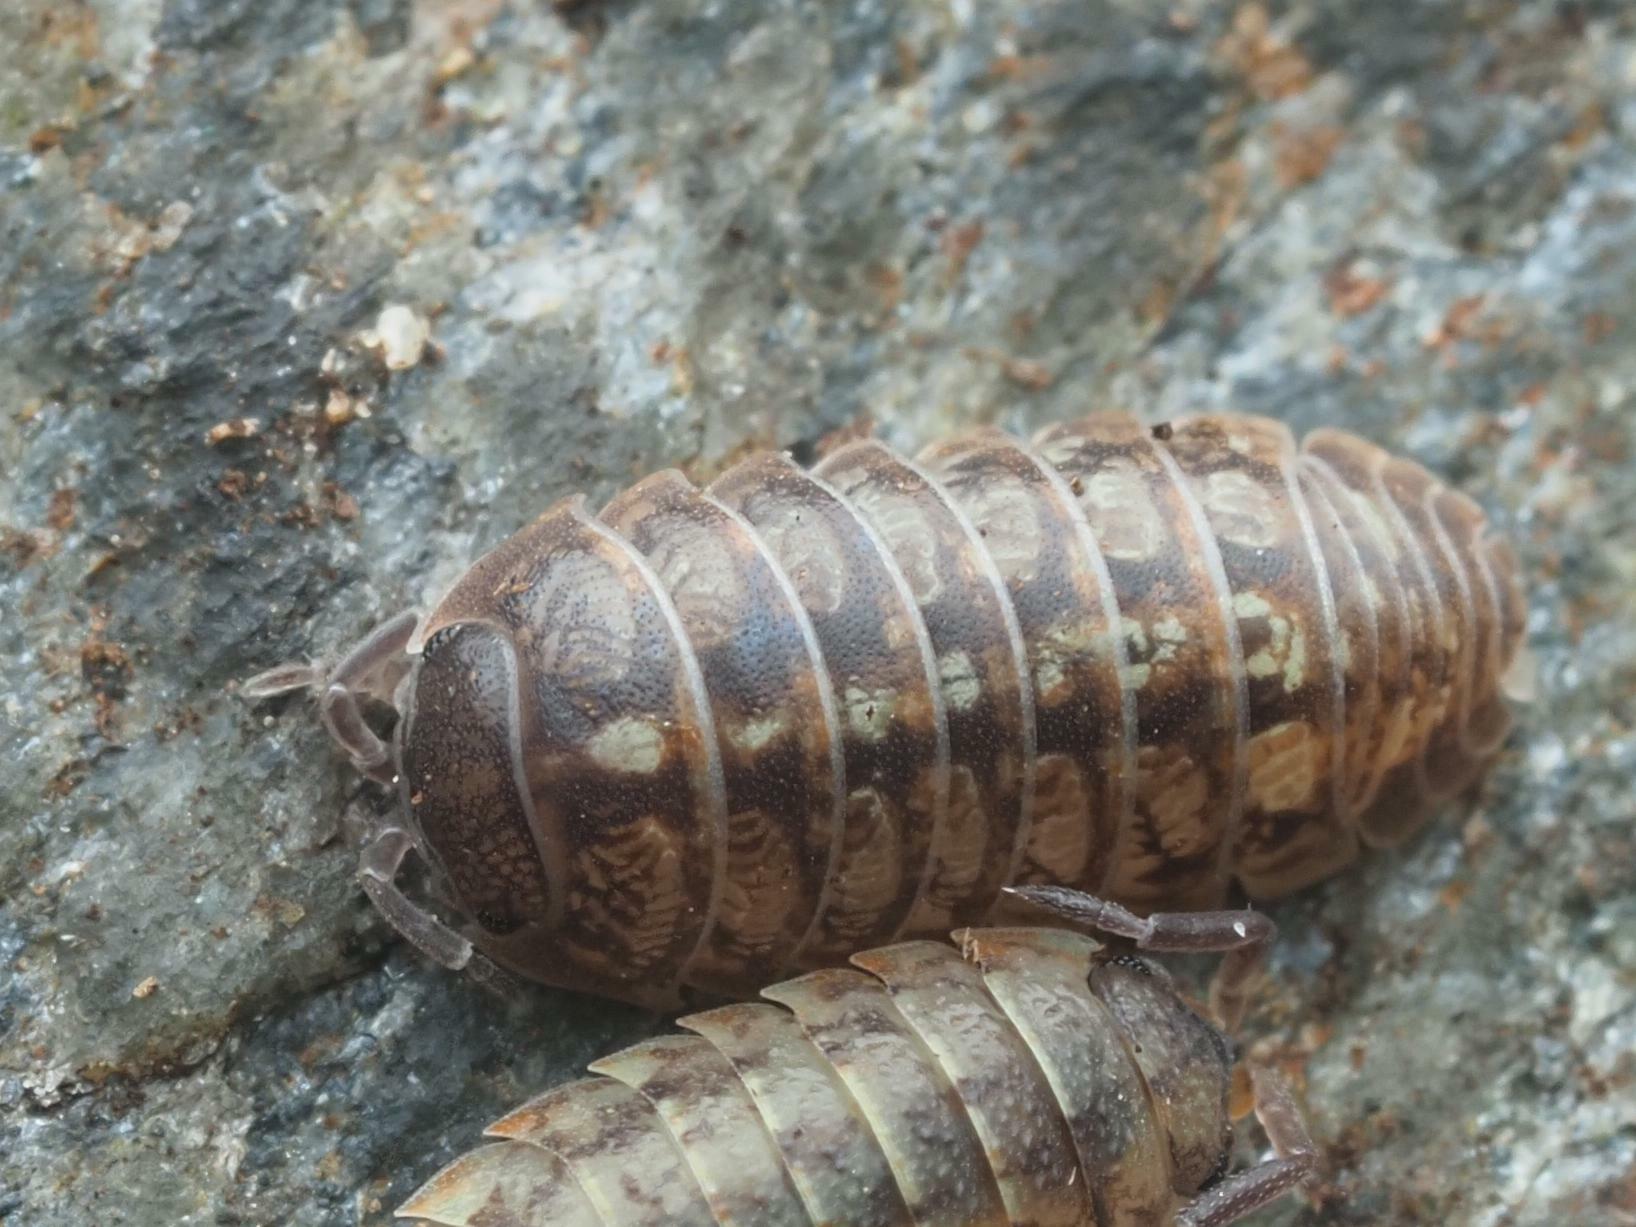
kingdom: Animalia
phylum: Arthropoda
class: Malacostraca
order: Isopoda
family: Armadillidiidae
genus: Armadillidium
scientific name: Armadillidium vulgare
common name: Common pill woodlouse
